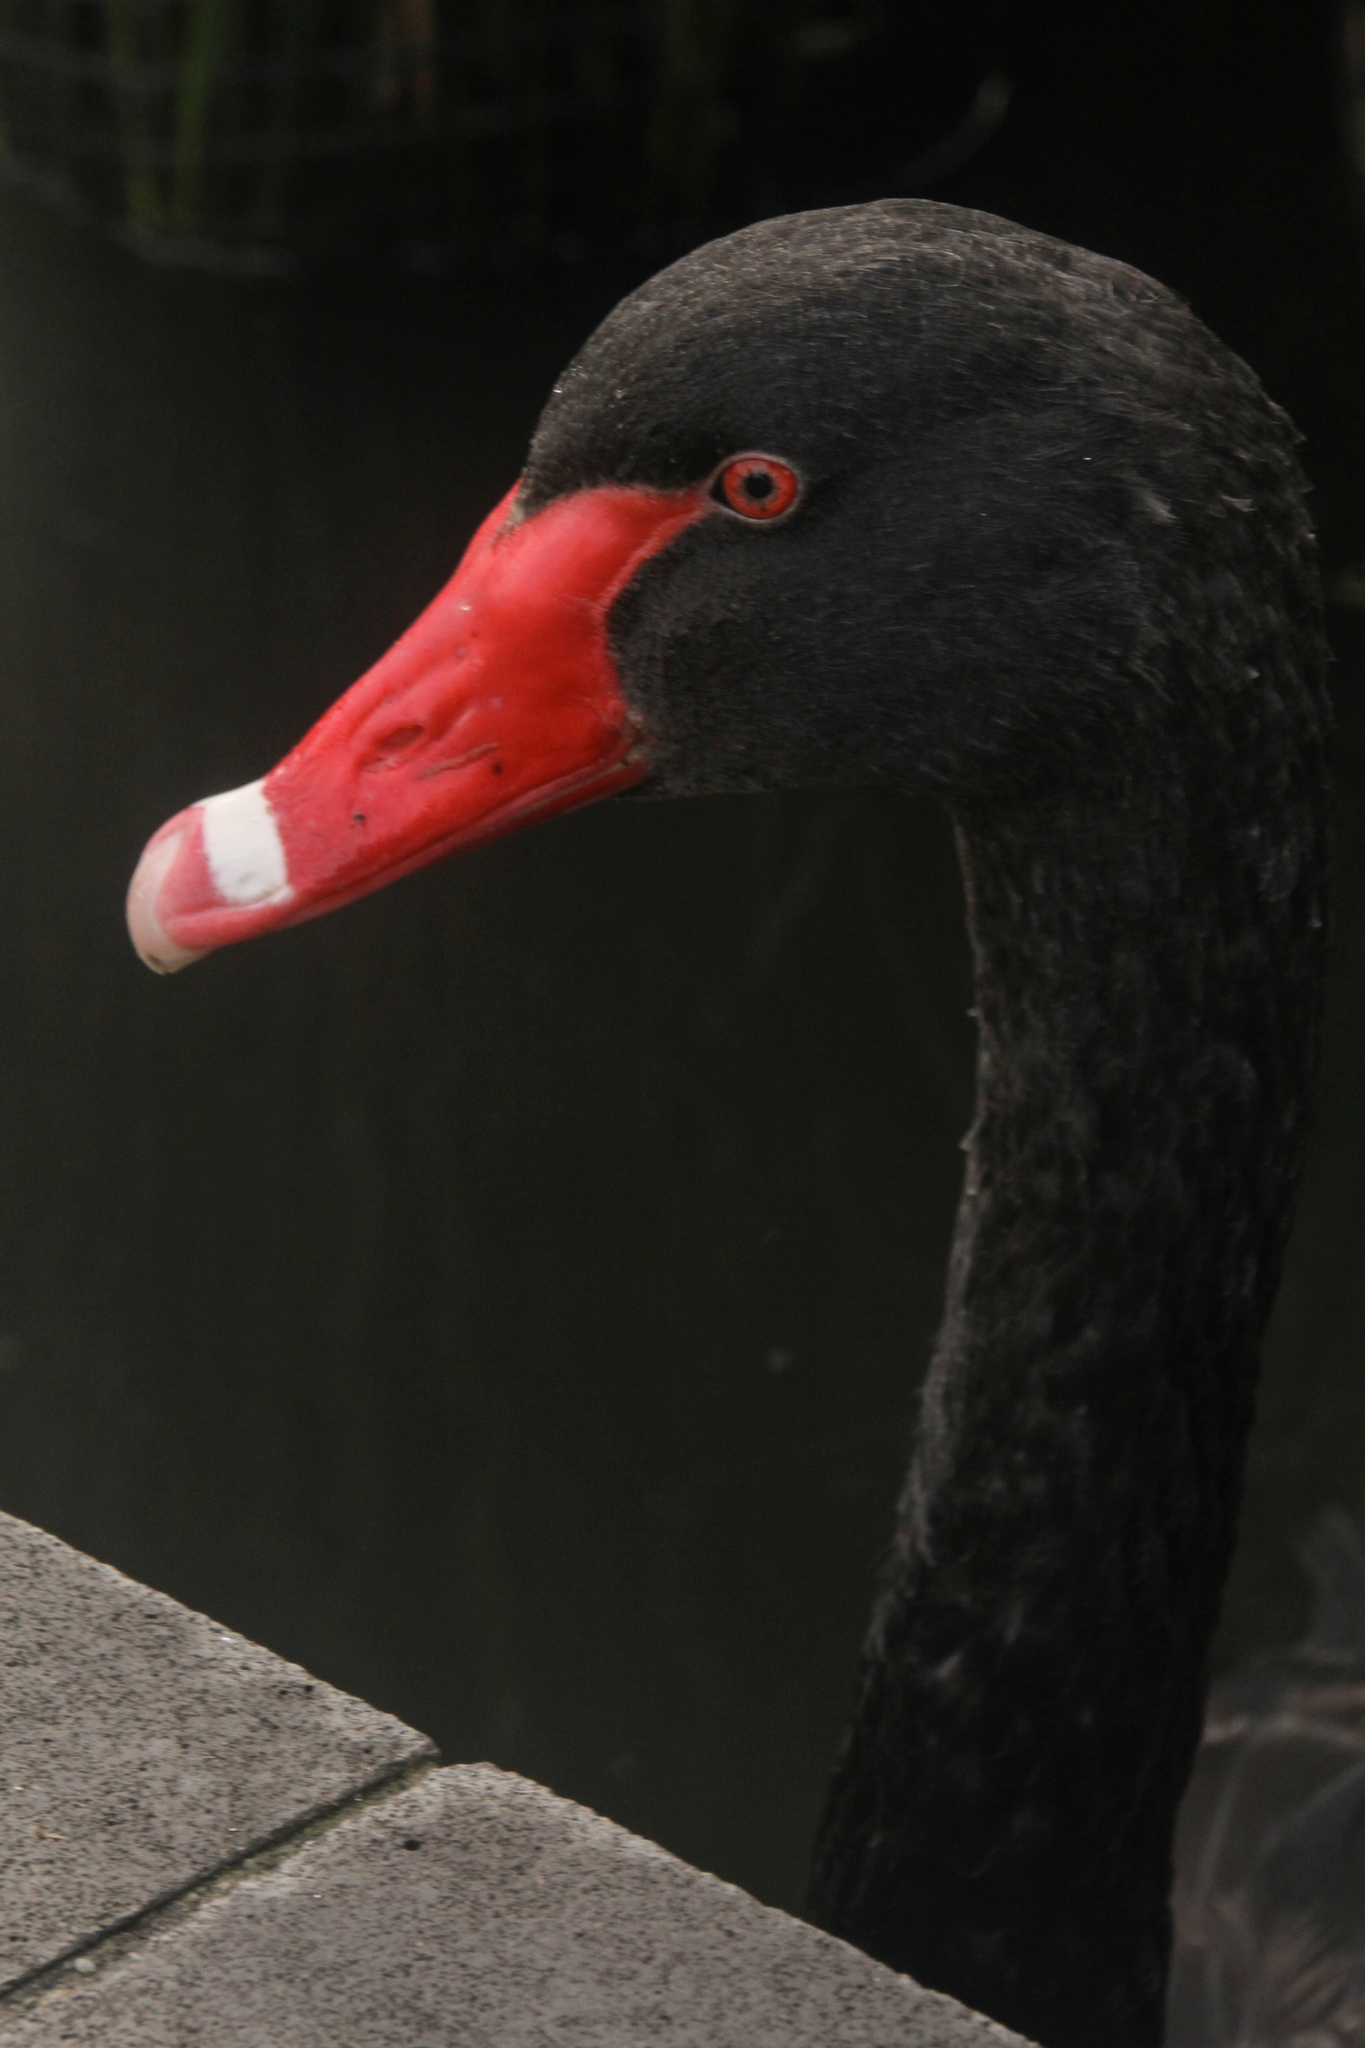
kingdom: Animalia
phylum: Chordata
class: Aves
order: Anseriformes
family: Anatidae
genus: Cygnus
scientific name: Cygnus atratus
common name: Black swan
